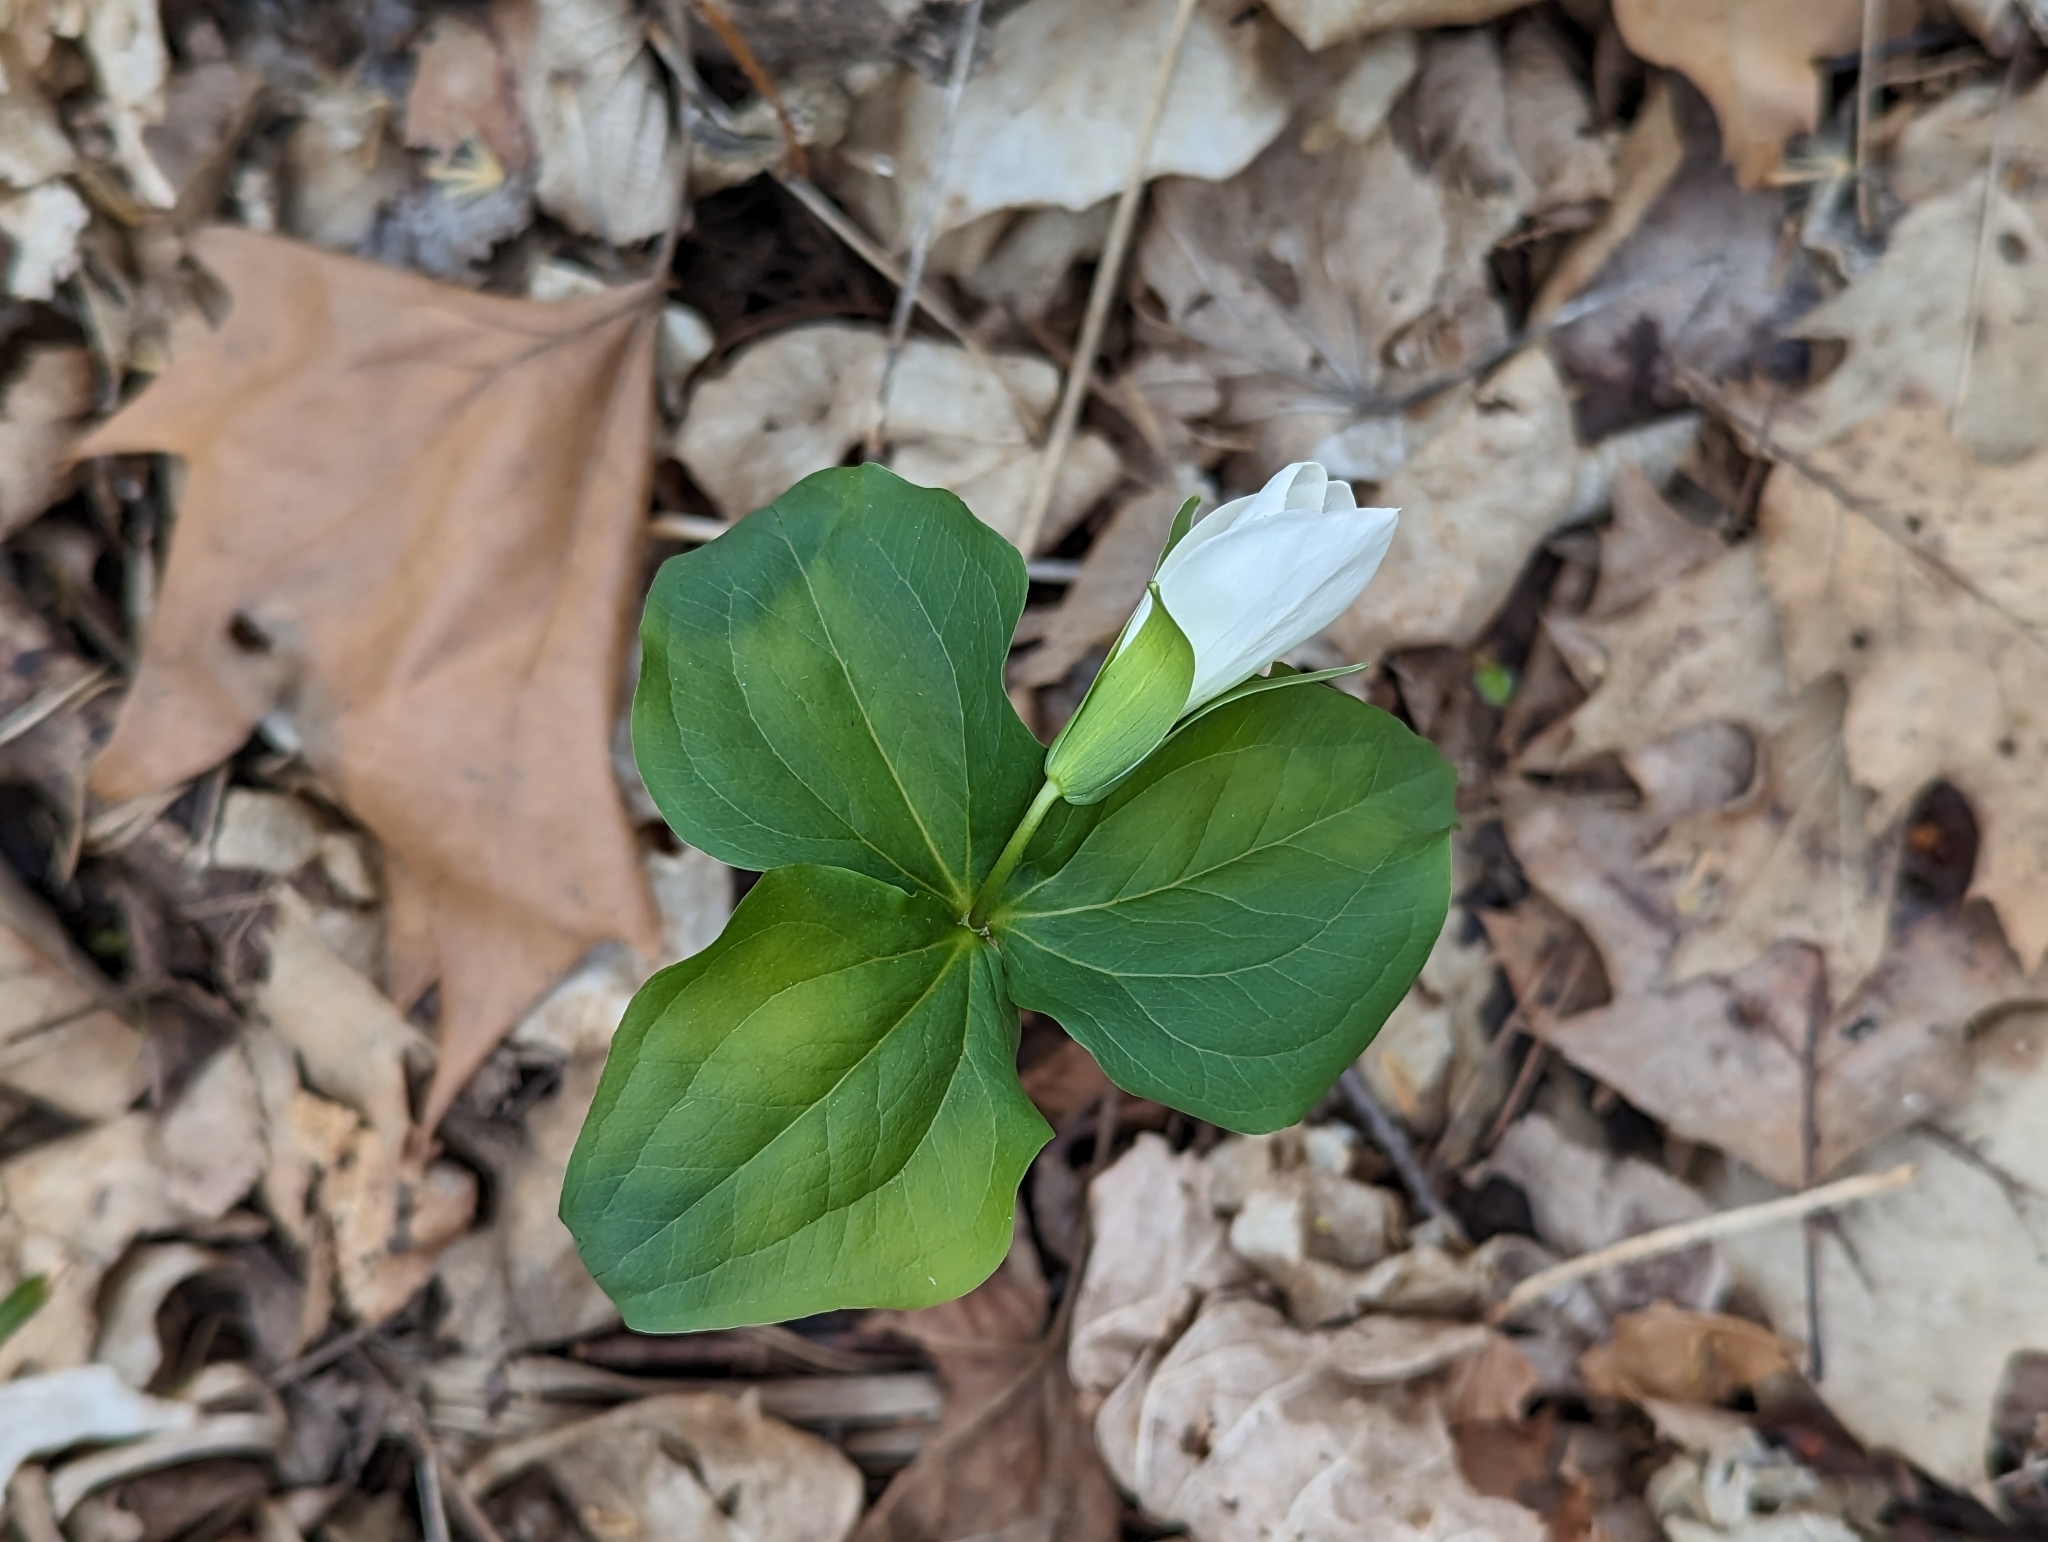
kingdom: Plantae
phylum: Tracheophyta
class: Liliopsida
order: Liliales
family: Melanthiaceae
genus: Trillium
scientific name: Trillium grandiflorum
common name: Great white trillium
